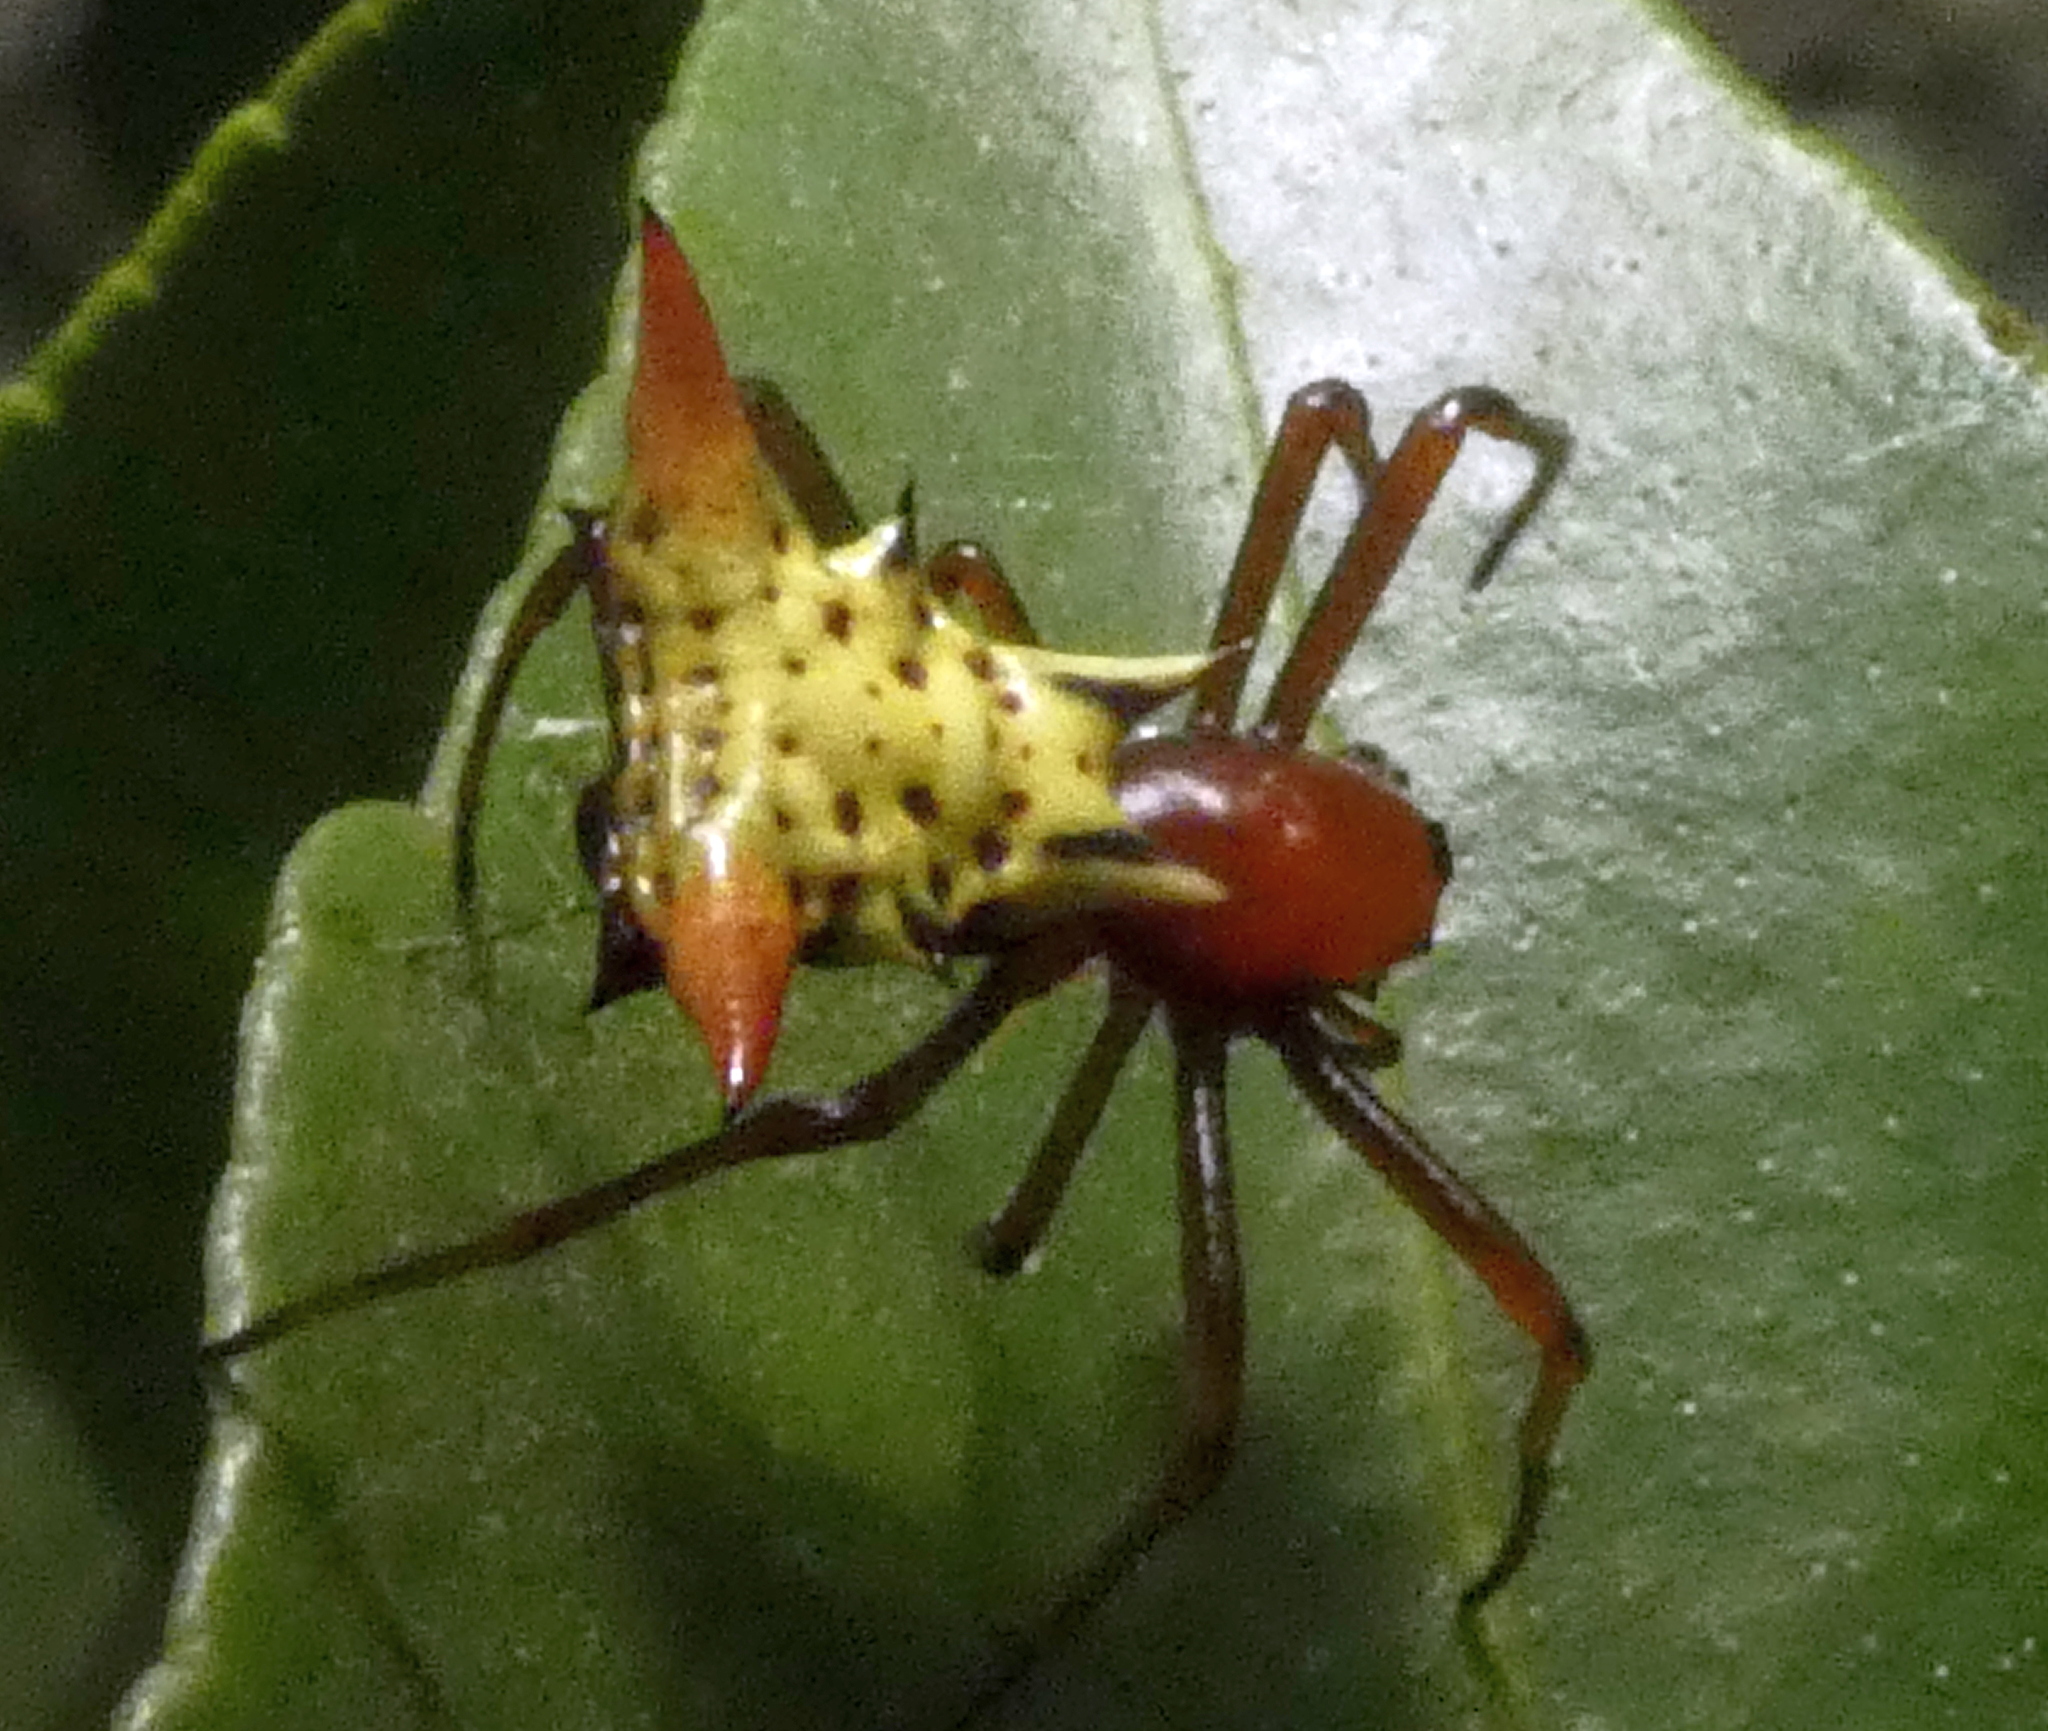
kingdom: Animalia
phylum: Arthropoda
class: Arachnida
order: Araneae
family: Araneidae
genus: Micrathena
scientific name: Micrathena flaveola
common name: Orb weavers
